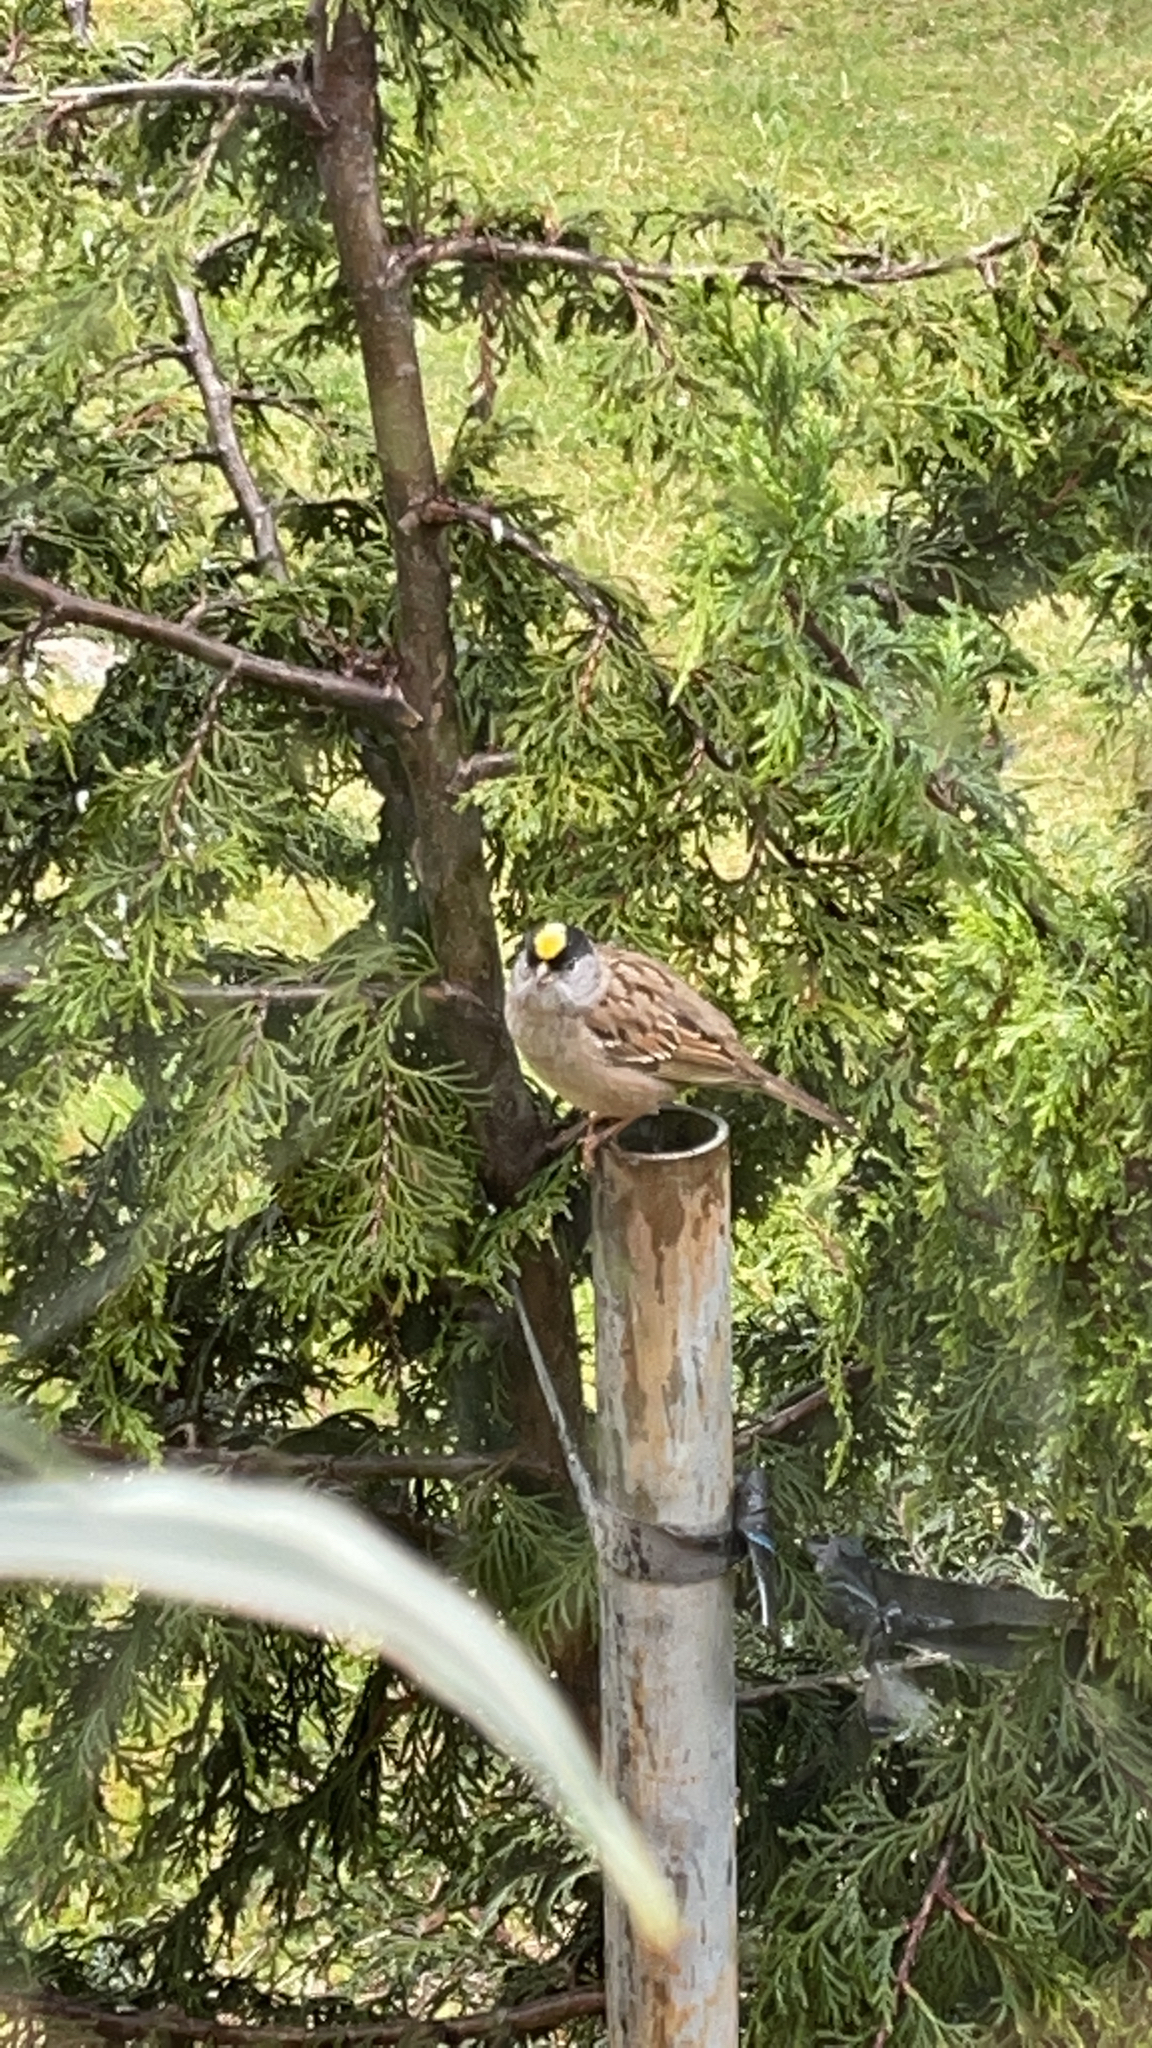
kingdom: Animalia
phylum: Chordata
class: Aves
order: Passeriformes
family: Passerellidae
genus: Zonotrichia
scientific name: Zonotrichia atricapilla
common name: Golden-crowned sparrow
